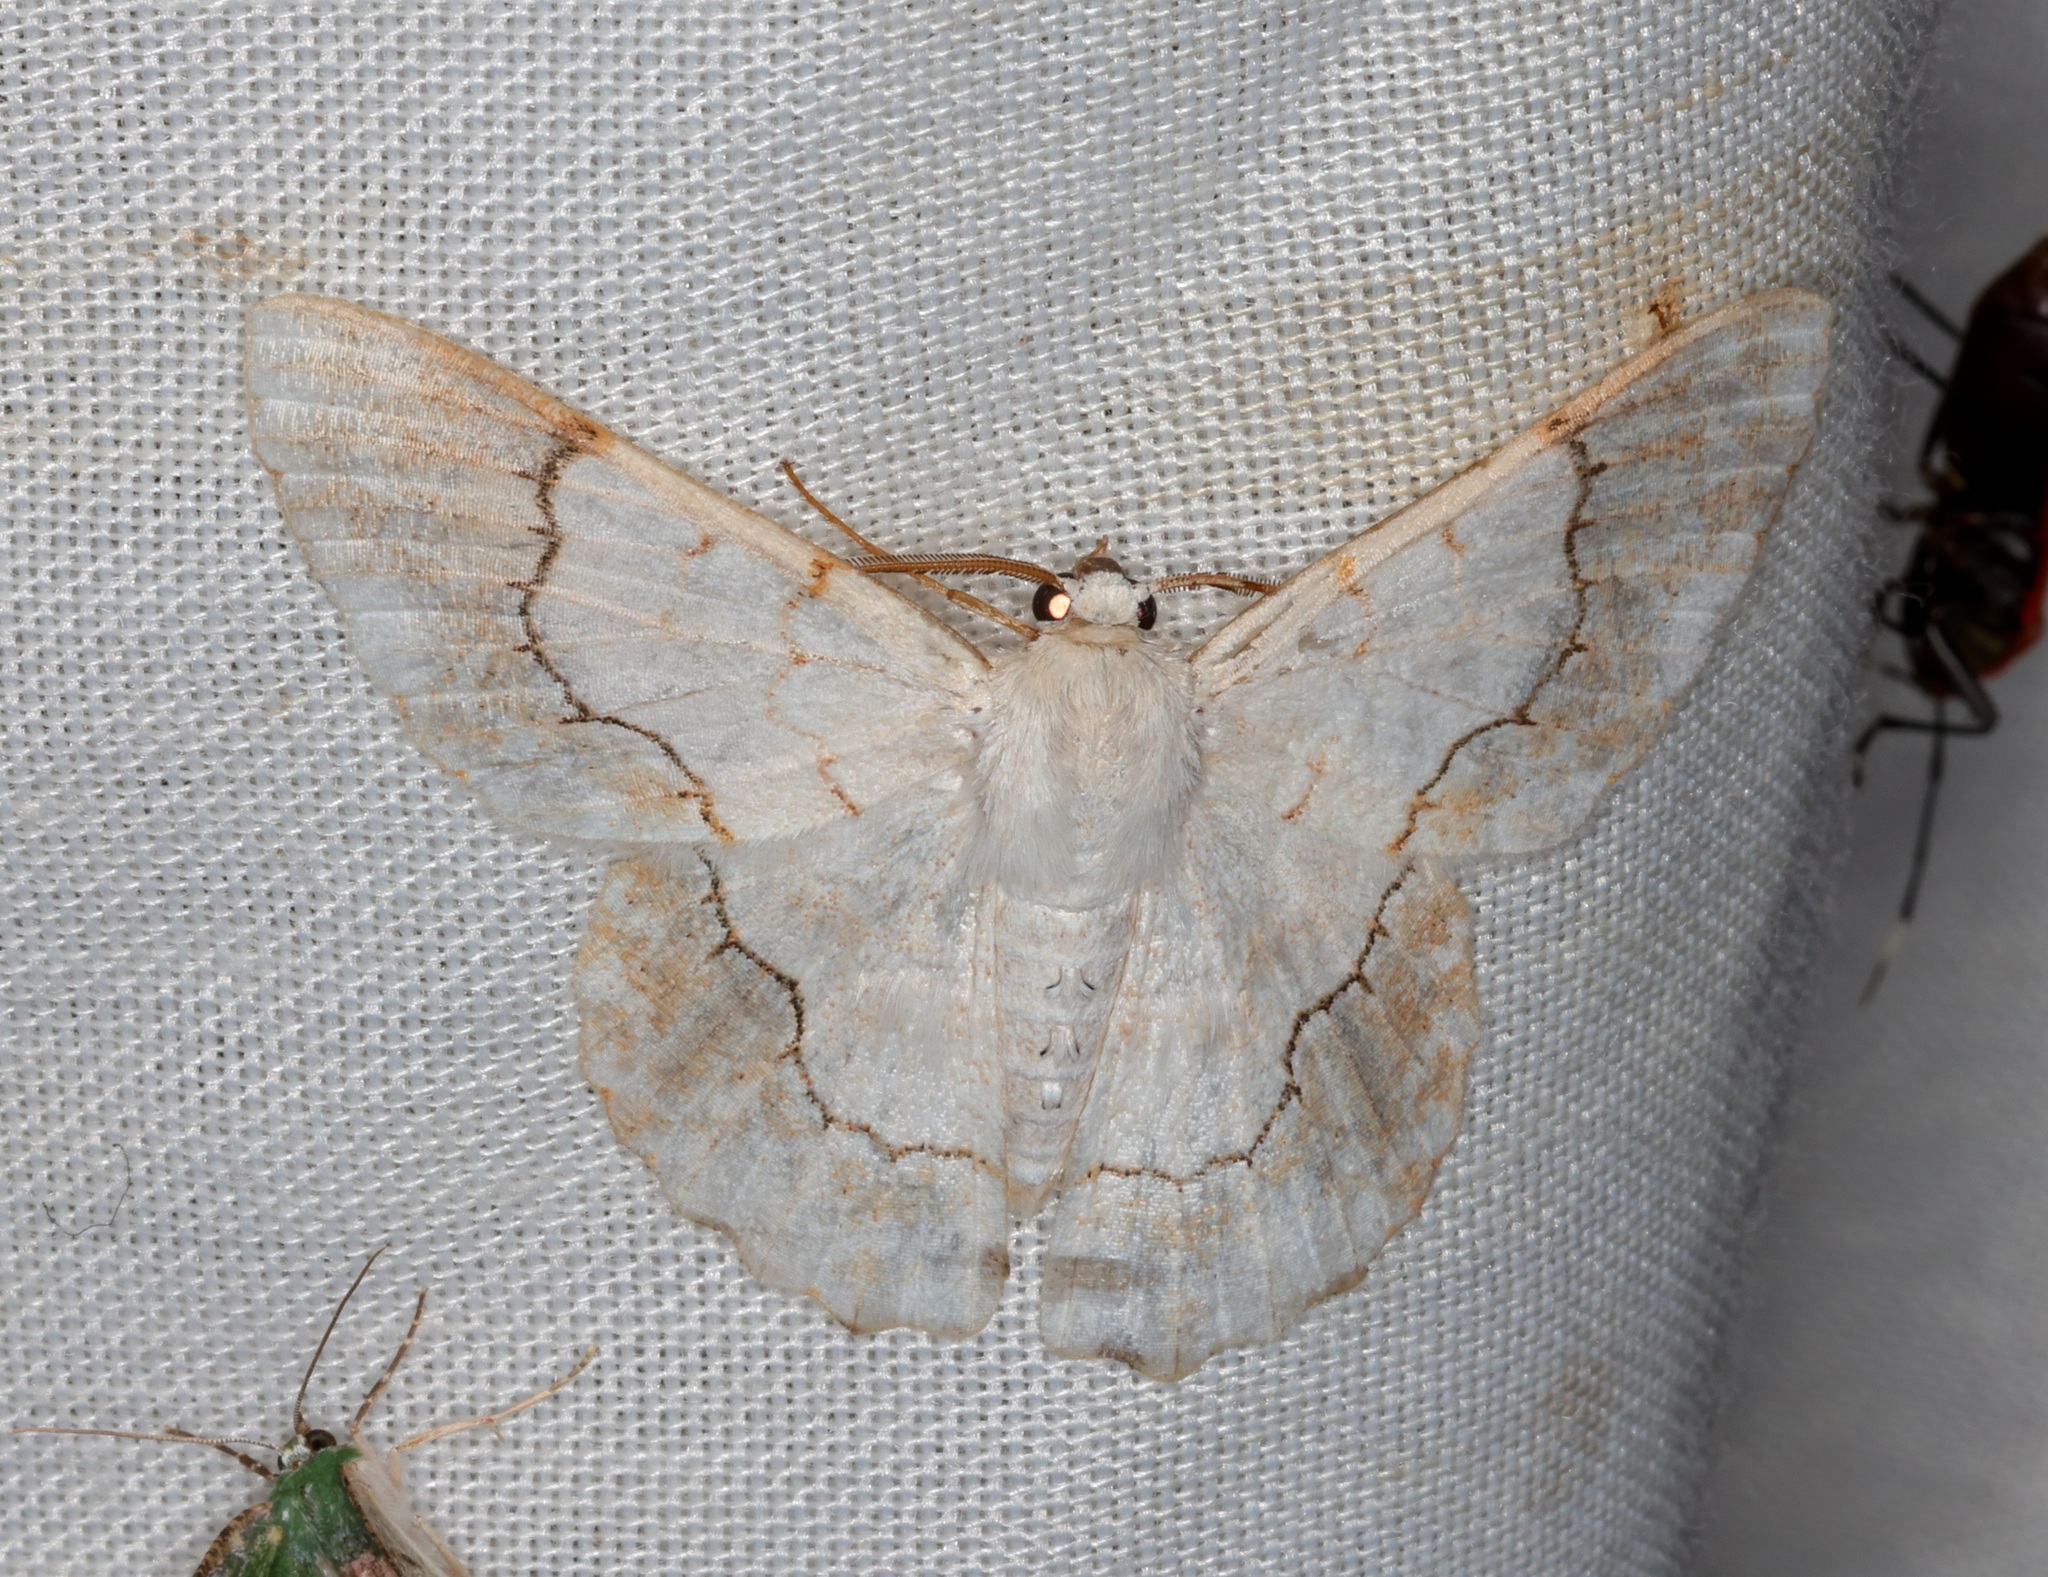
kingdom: Animalia
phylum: Arthropoda
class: Insecta
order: Lepidoptera
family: Geometridae
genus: Pingasa
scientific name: Pingasa ruginaria
